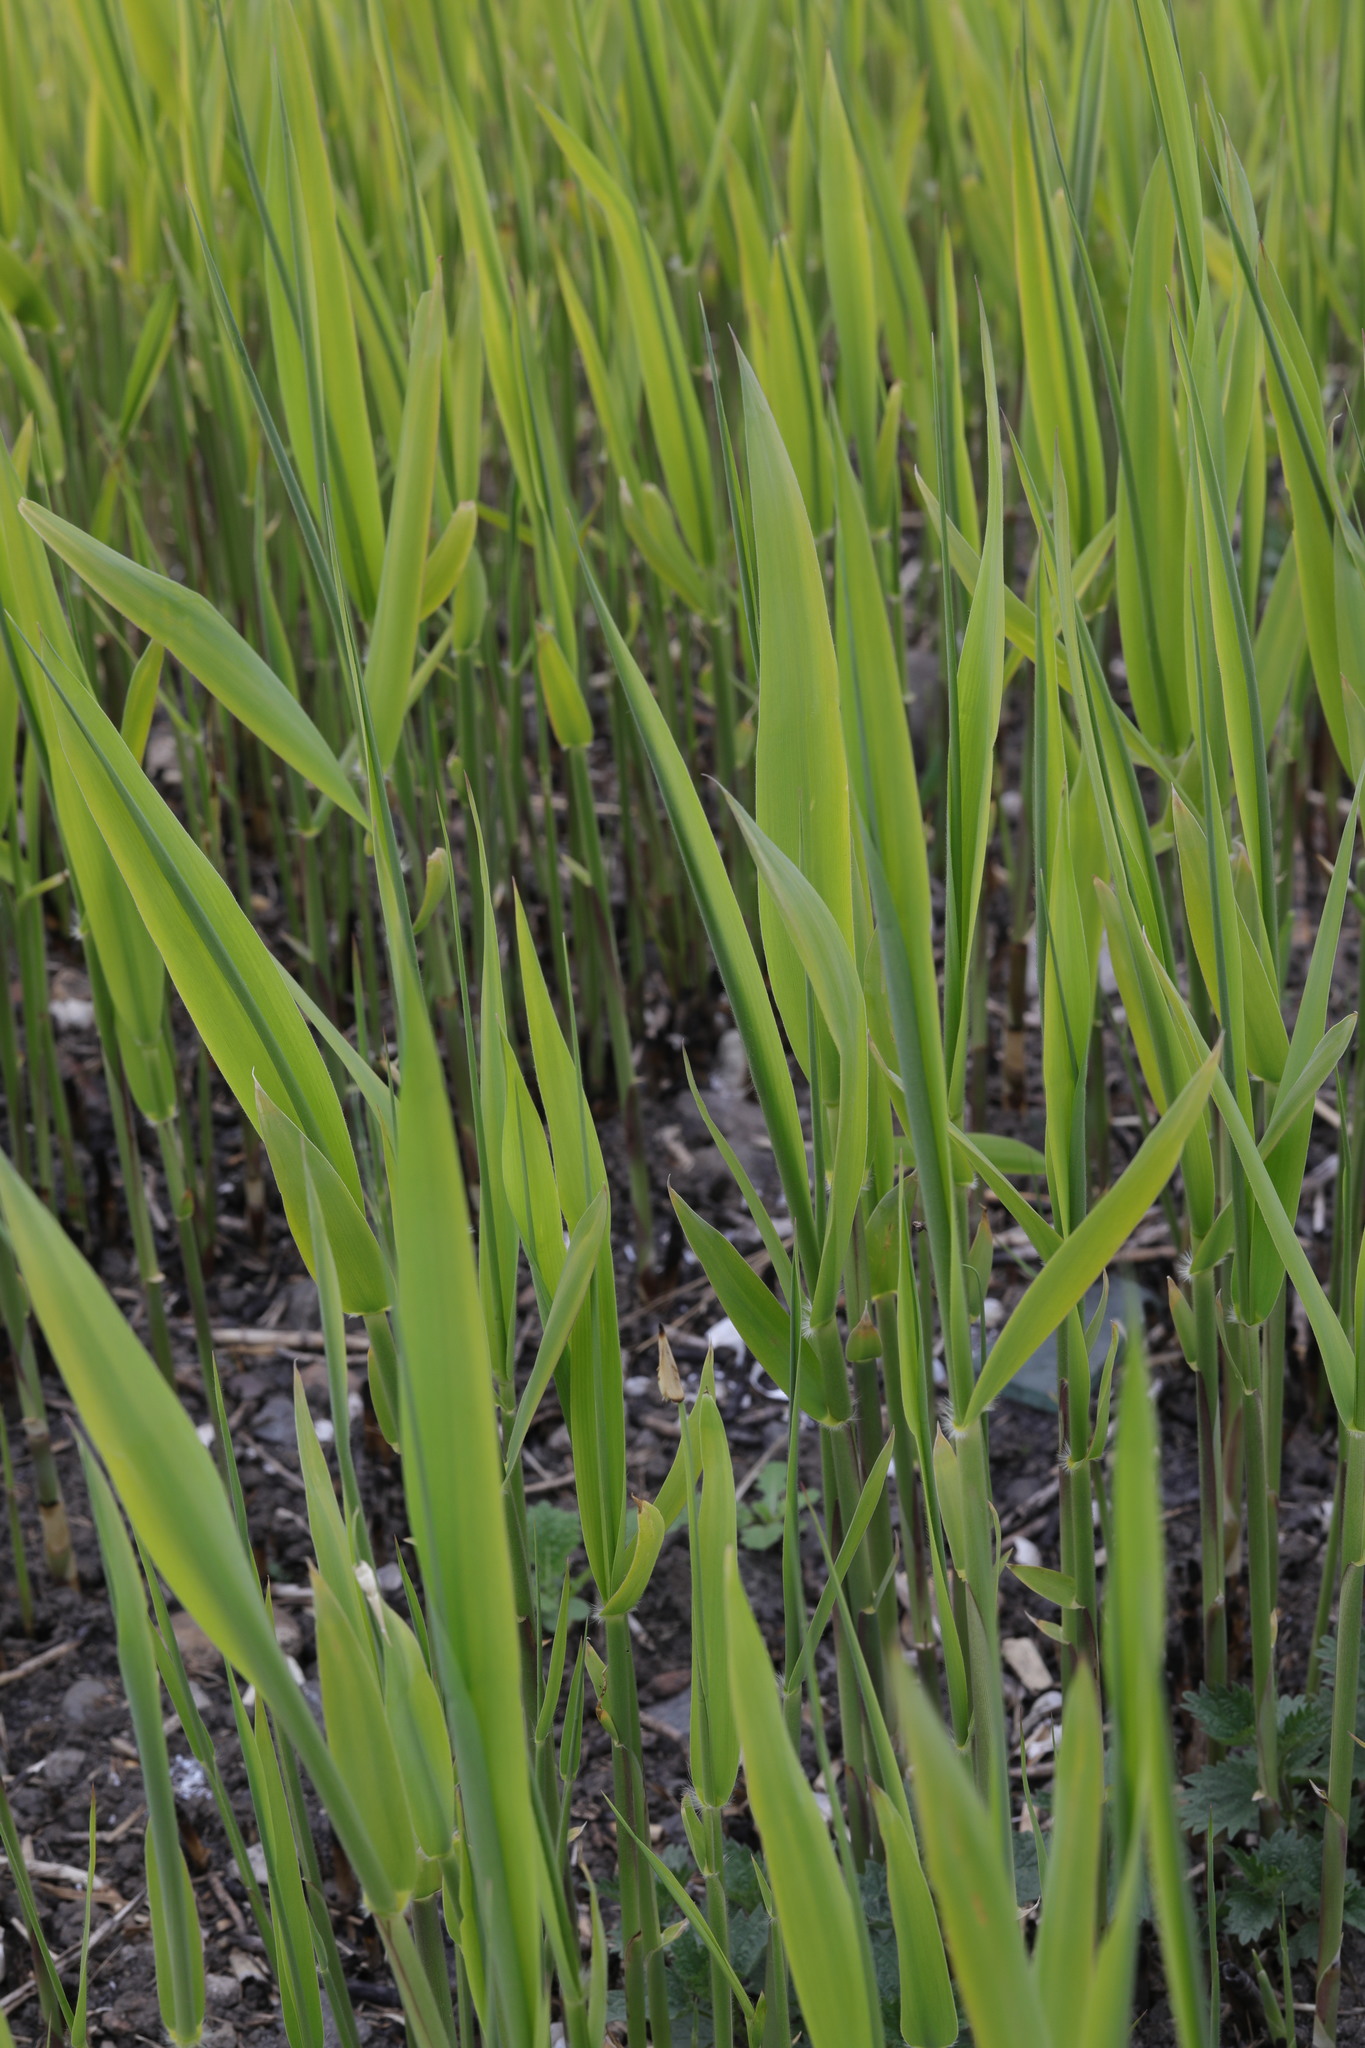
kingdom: Plantae
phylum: Tracheophyta
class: Liliopsida
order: Poales
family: Poaceae
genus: Phragmites
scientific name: Phragmites australis
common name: Common reed
